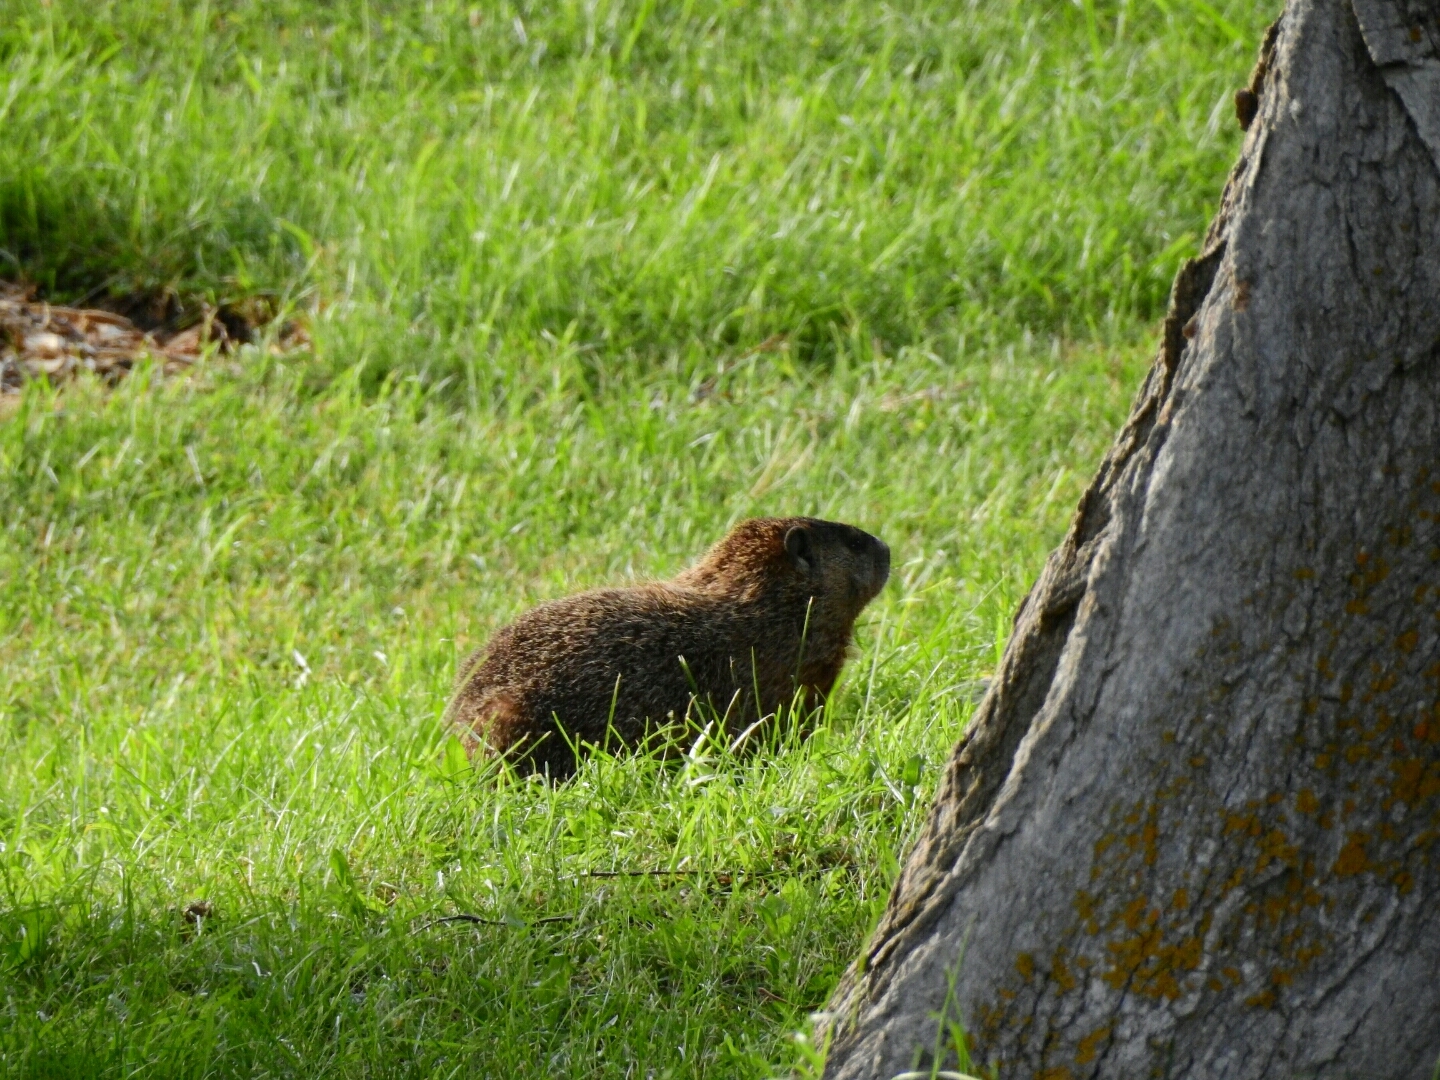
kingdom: Animalia
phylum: Chordata
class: Mammalia
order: Rodentia
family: Sciuridae
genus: Marmota
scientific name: Marmota monax
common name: Groundhog
